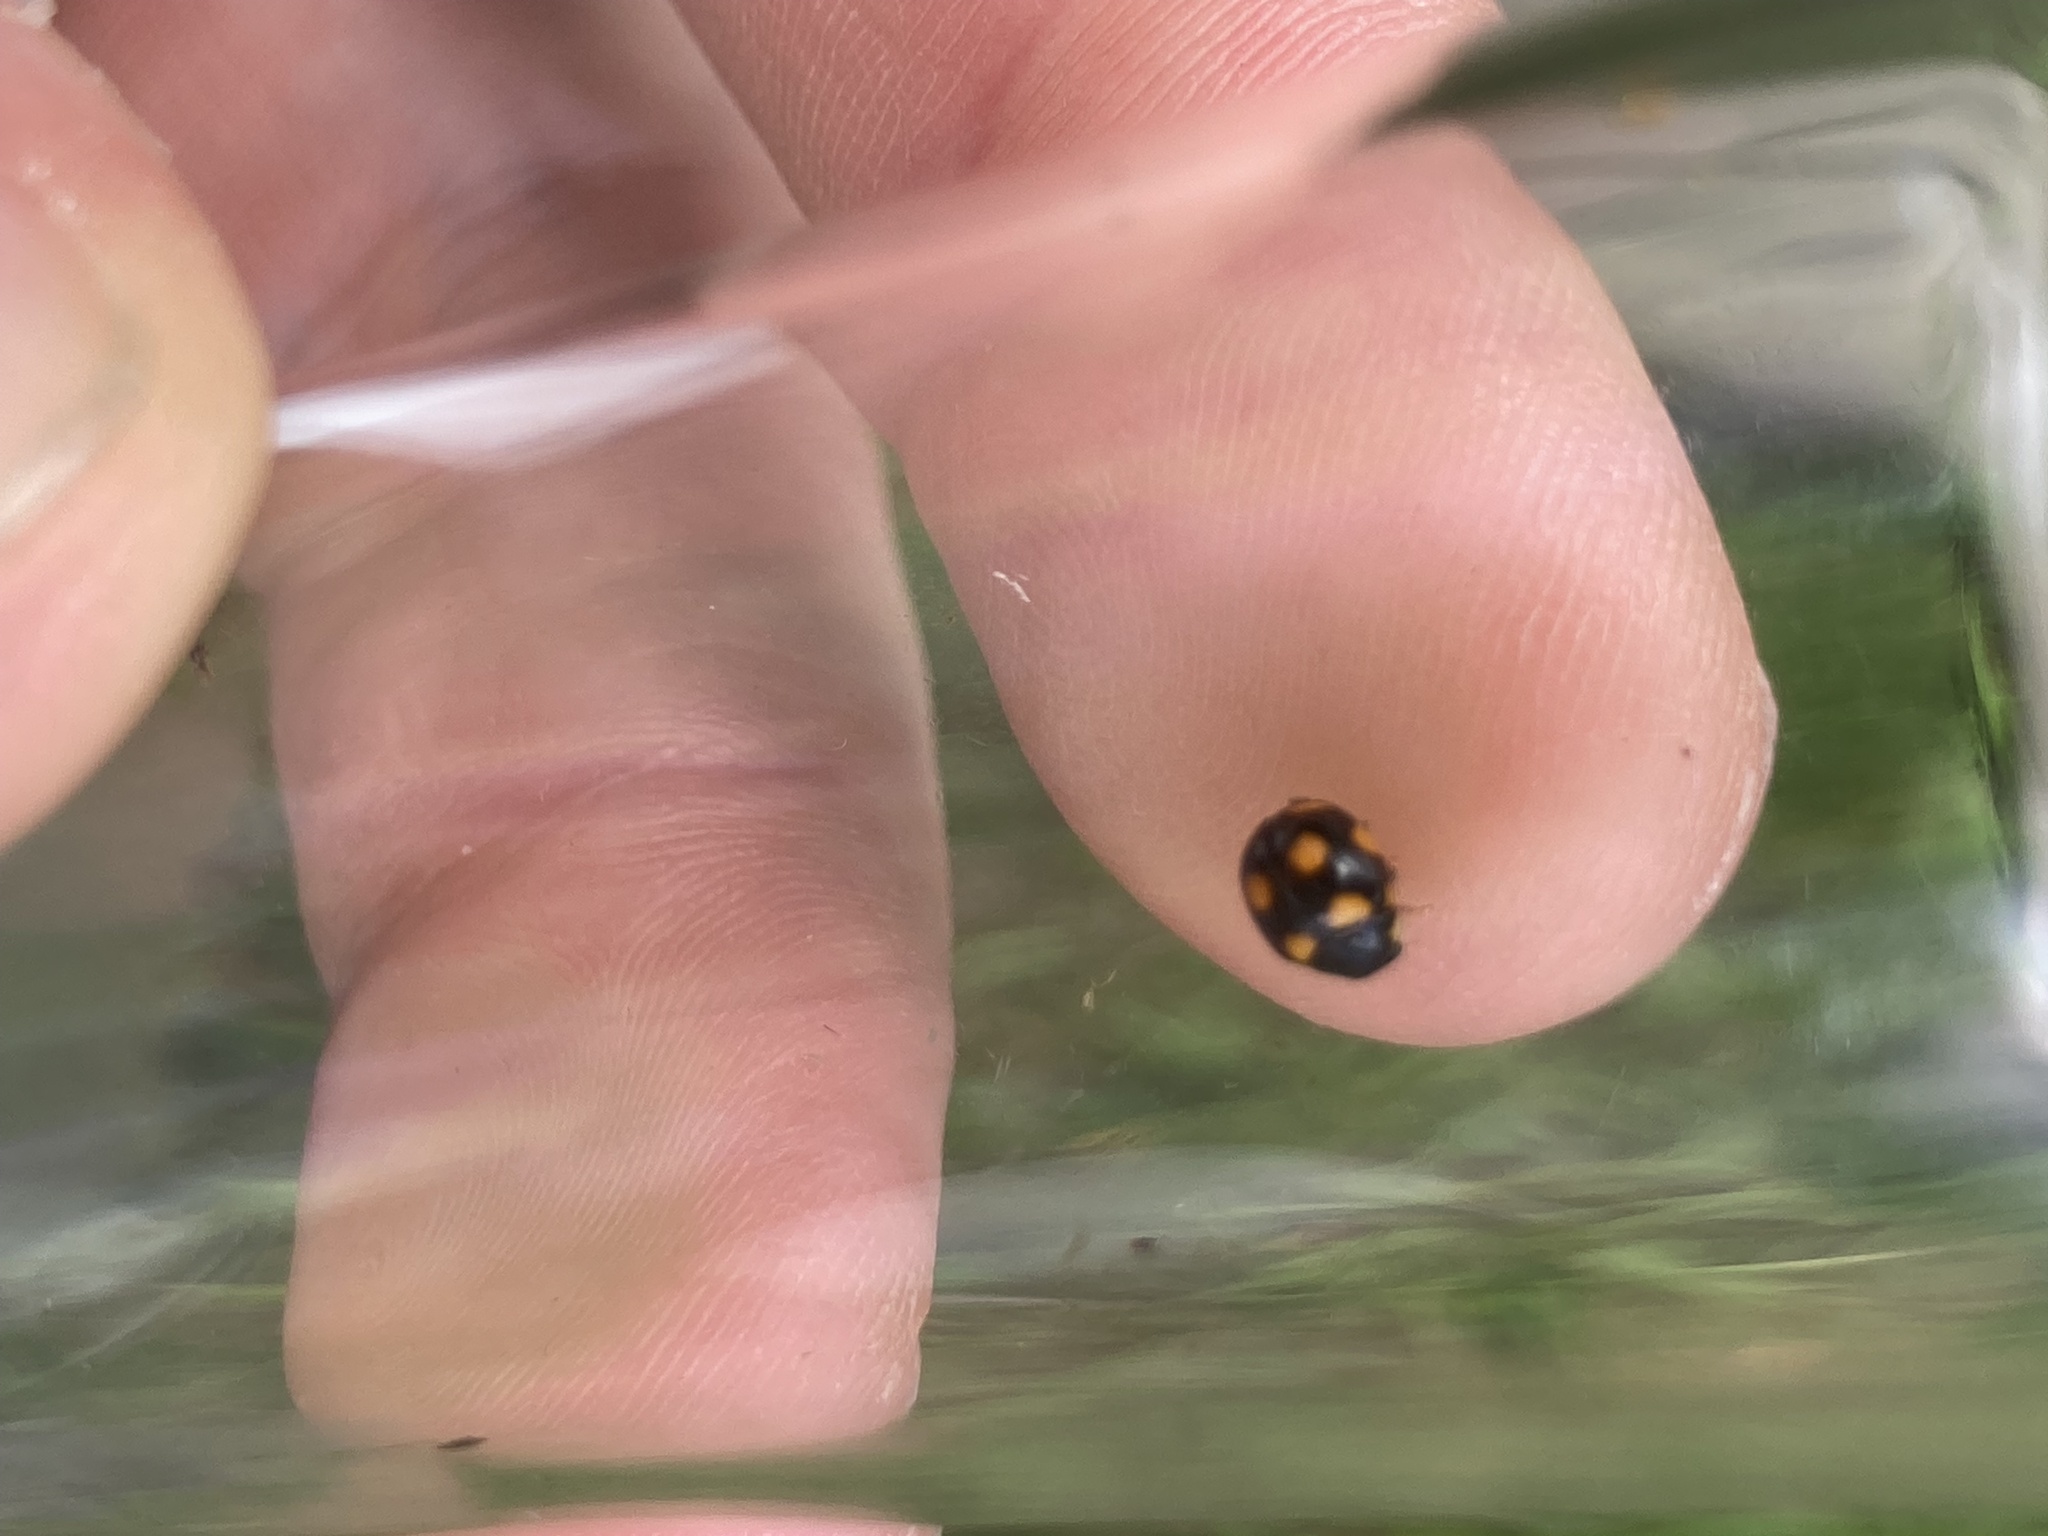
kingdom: Animalia
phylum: Arthropoda
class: Insecta
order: Coleoptera
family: Coccinellidae
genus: Brachiacantha
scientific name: Brachiacantha ursina
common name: Ursine spurleg lady beetle
